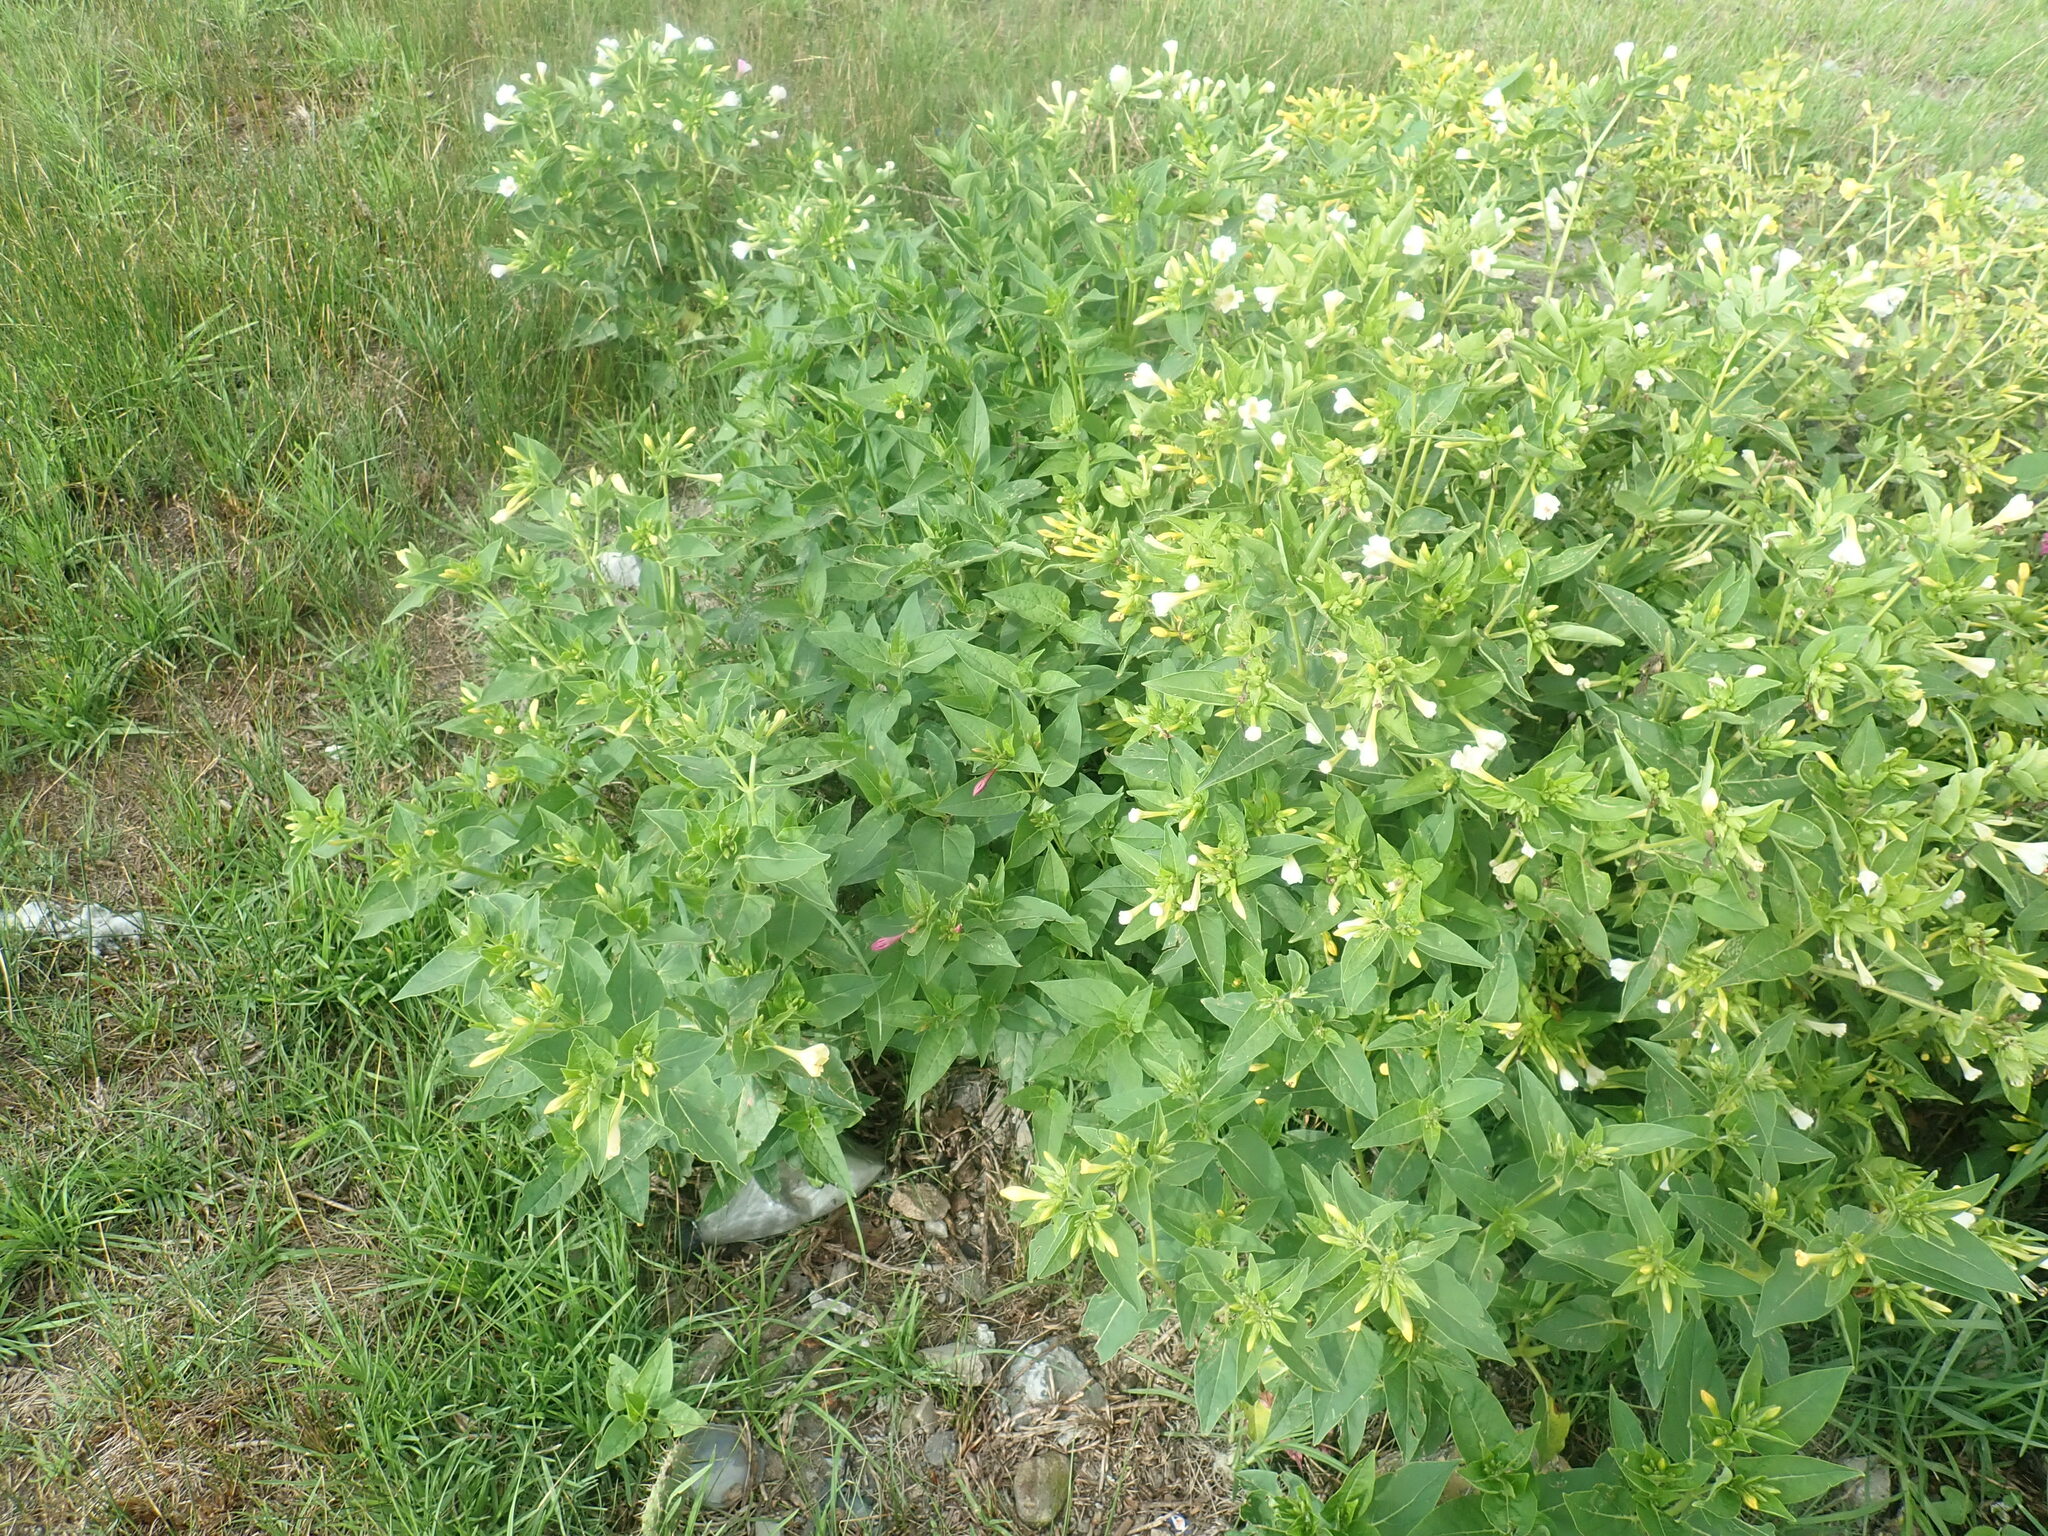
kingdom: Plantae
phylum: Tracheophyta
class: Magnoliopsida
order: Caryophyllales
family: Nyctaginaceae
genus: Mirabilis
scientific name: Mirabilis jalapa
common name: Marvel-of-peru
